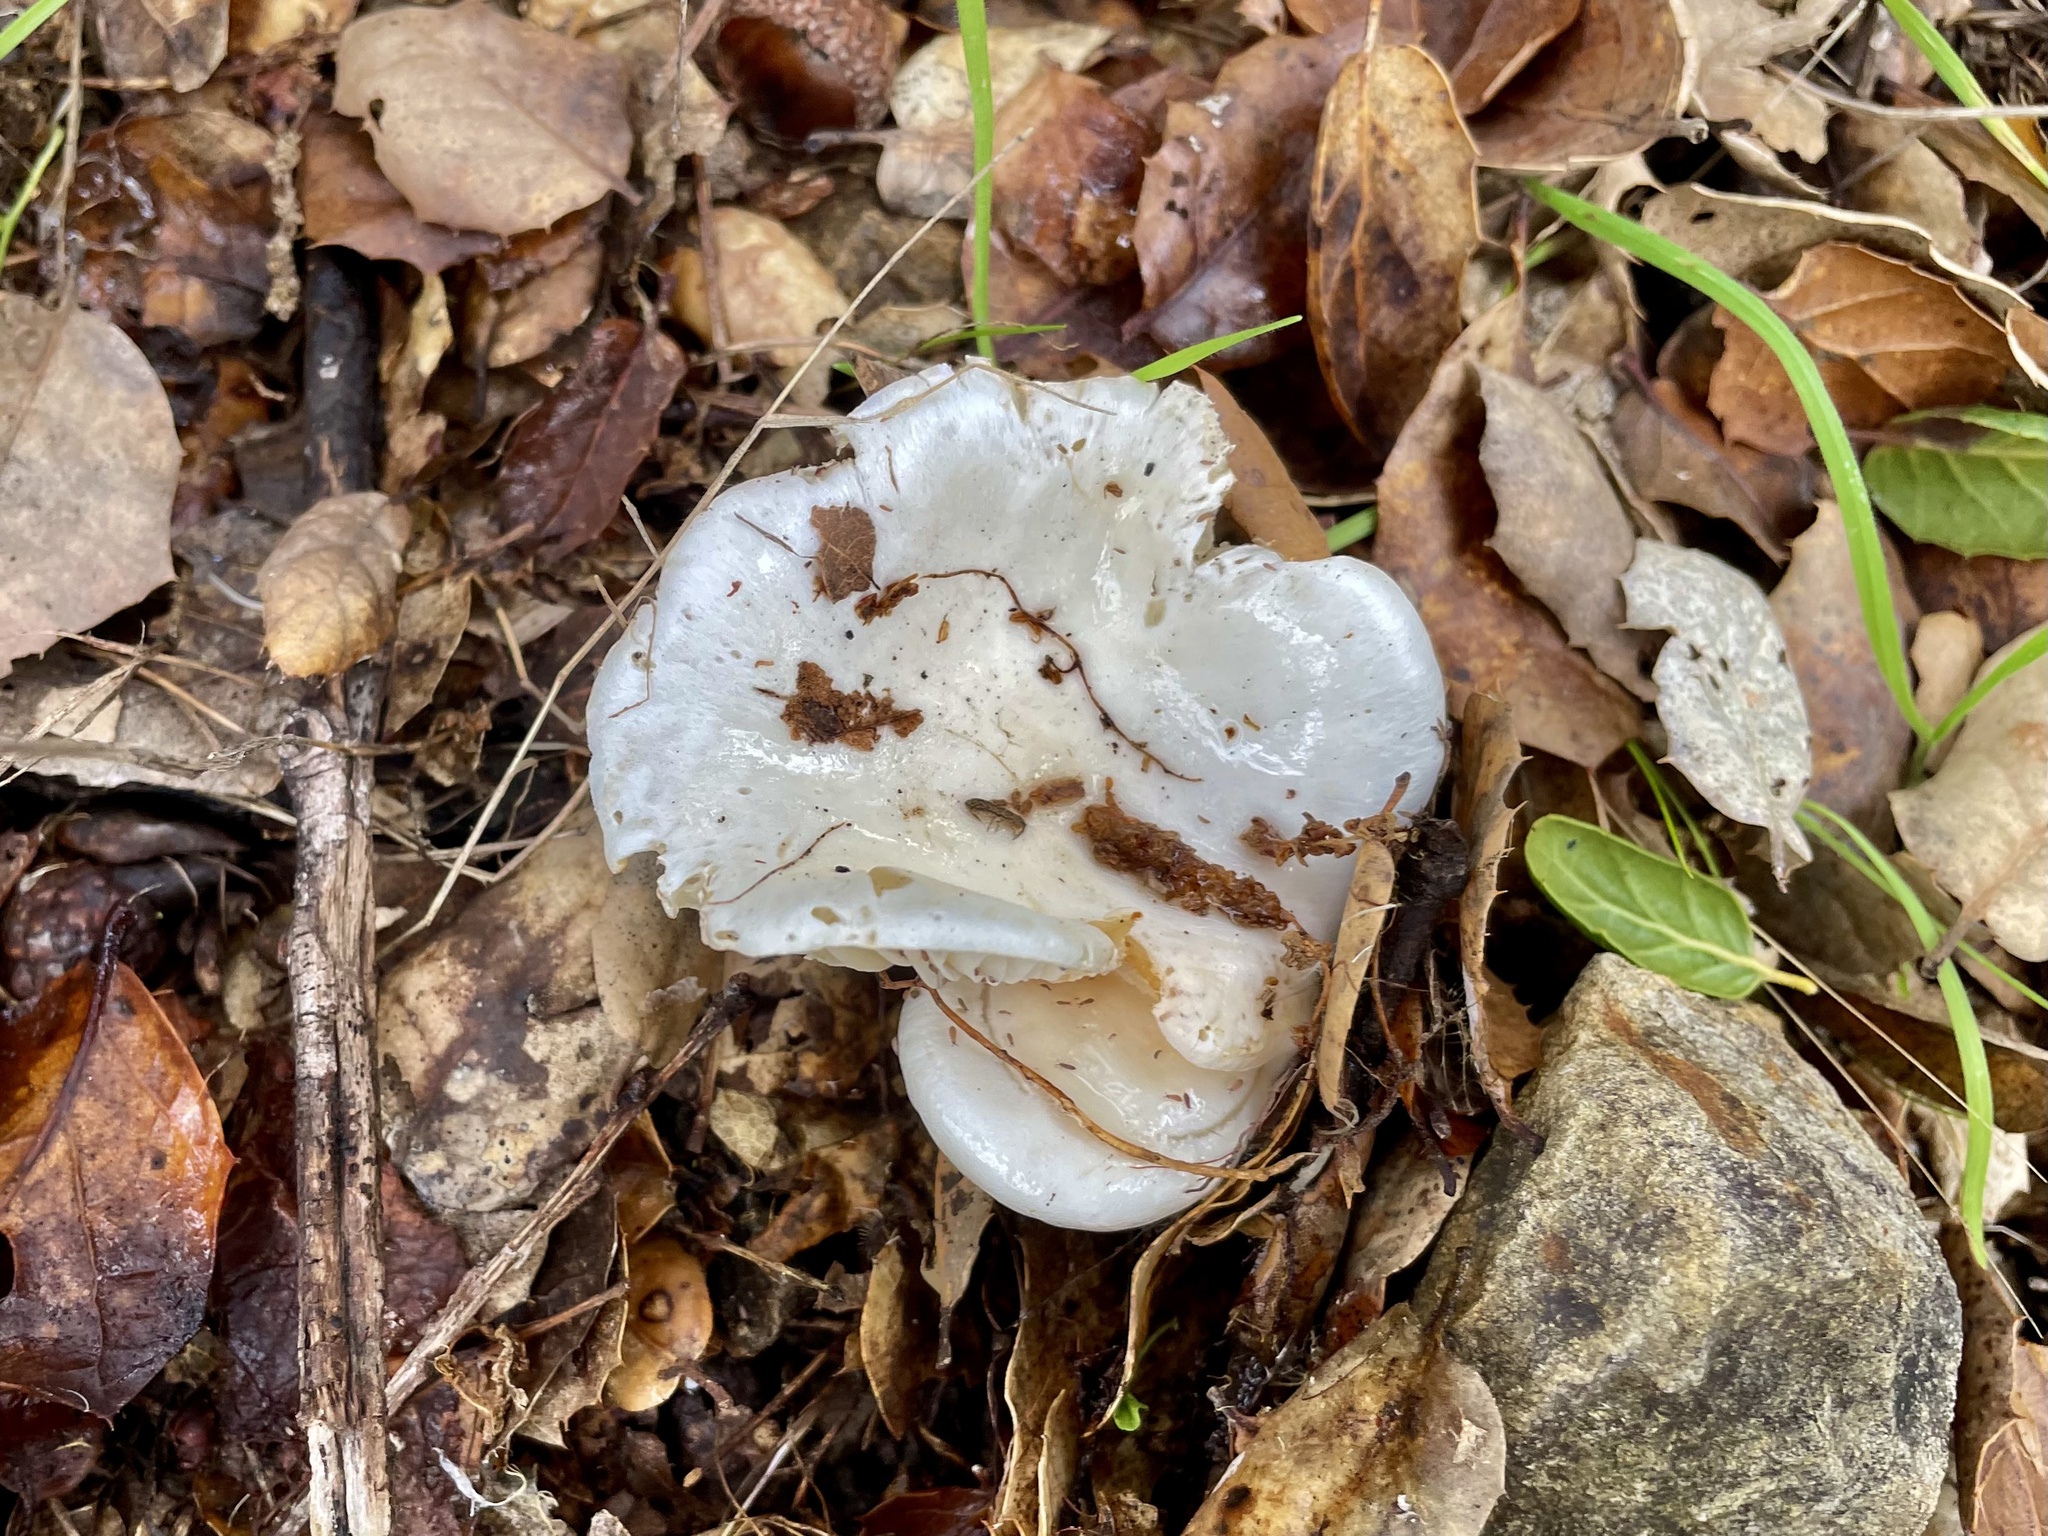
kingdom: Fungi
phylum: Basidiomycota
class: Agaricomycetes
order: Agaricales
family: Hygrophoraceae
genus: Hygrophorus
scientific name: Hygrophorus eburneus
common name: Ivory wax-cap
